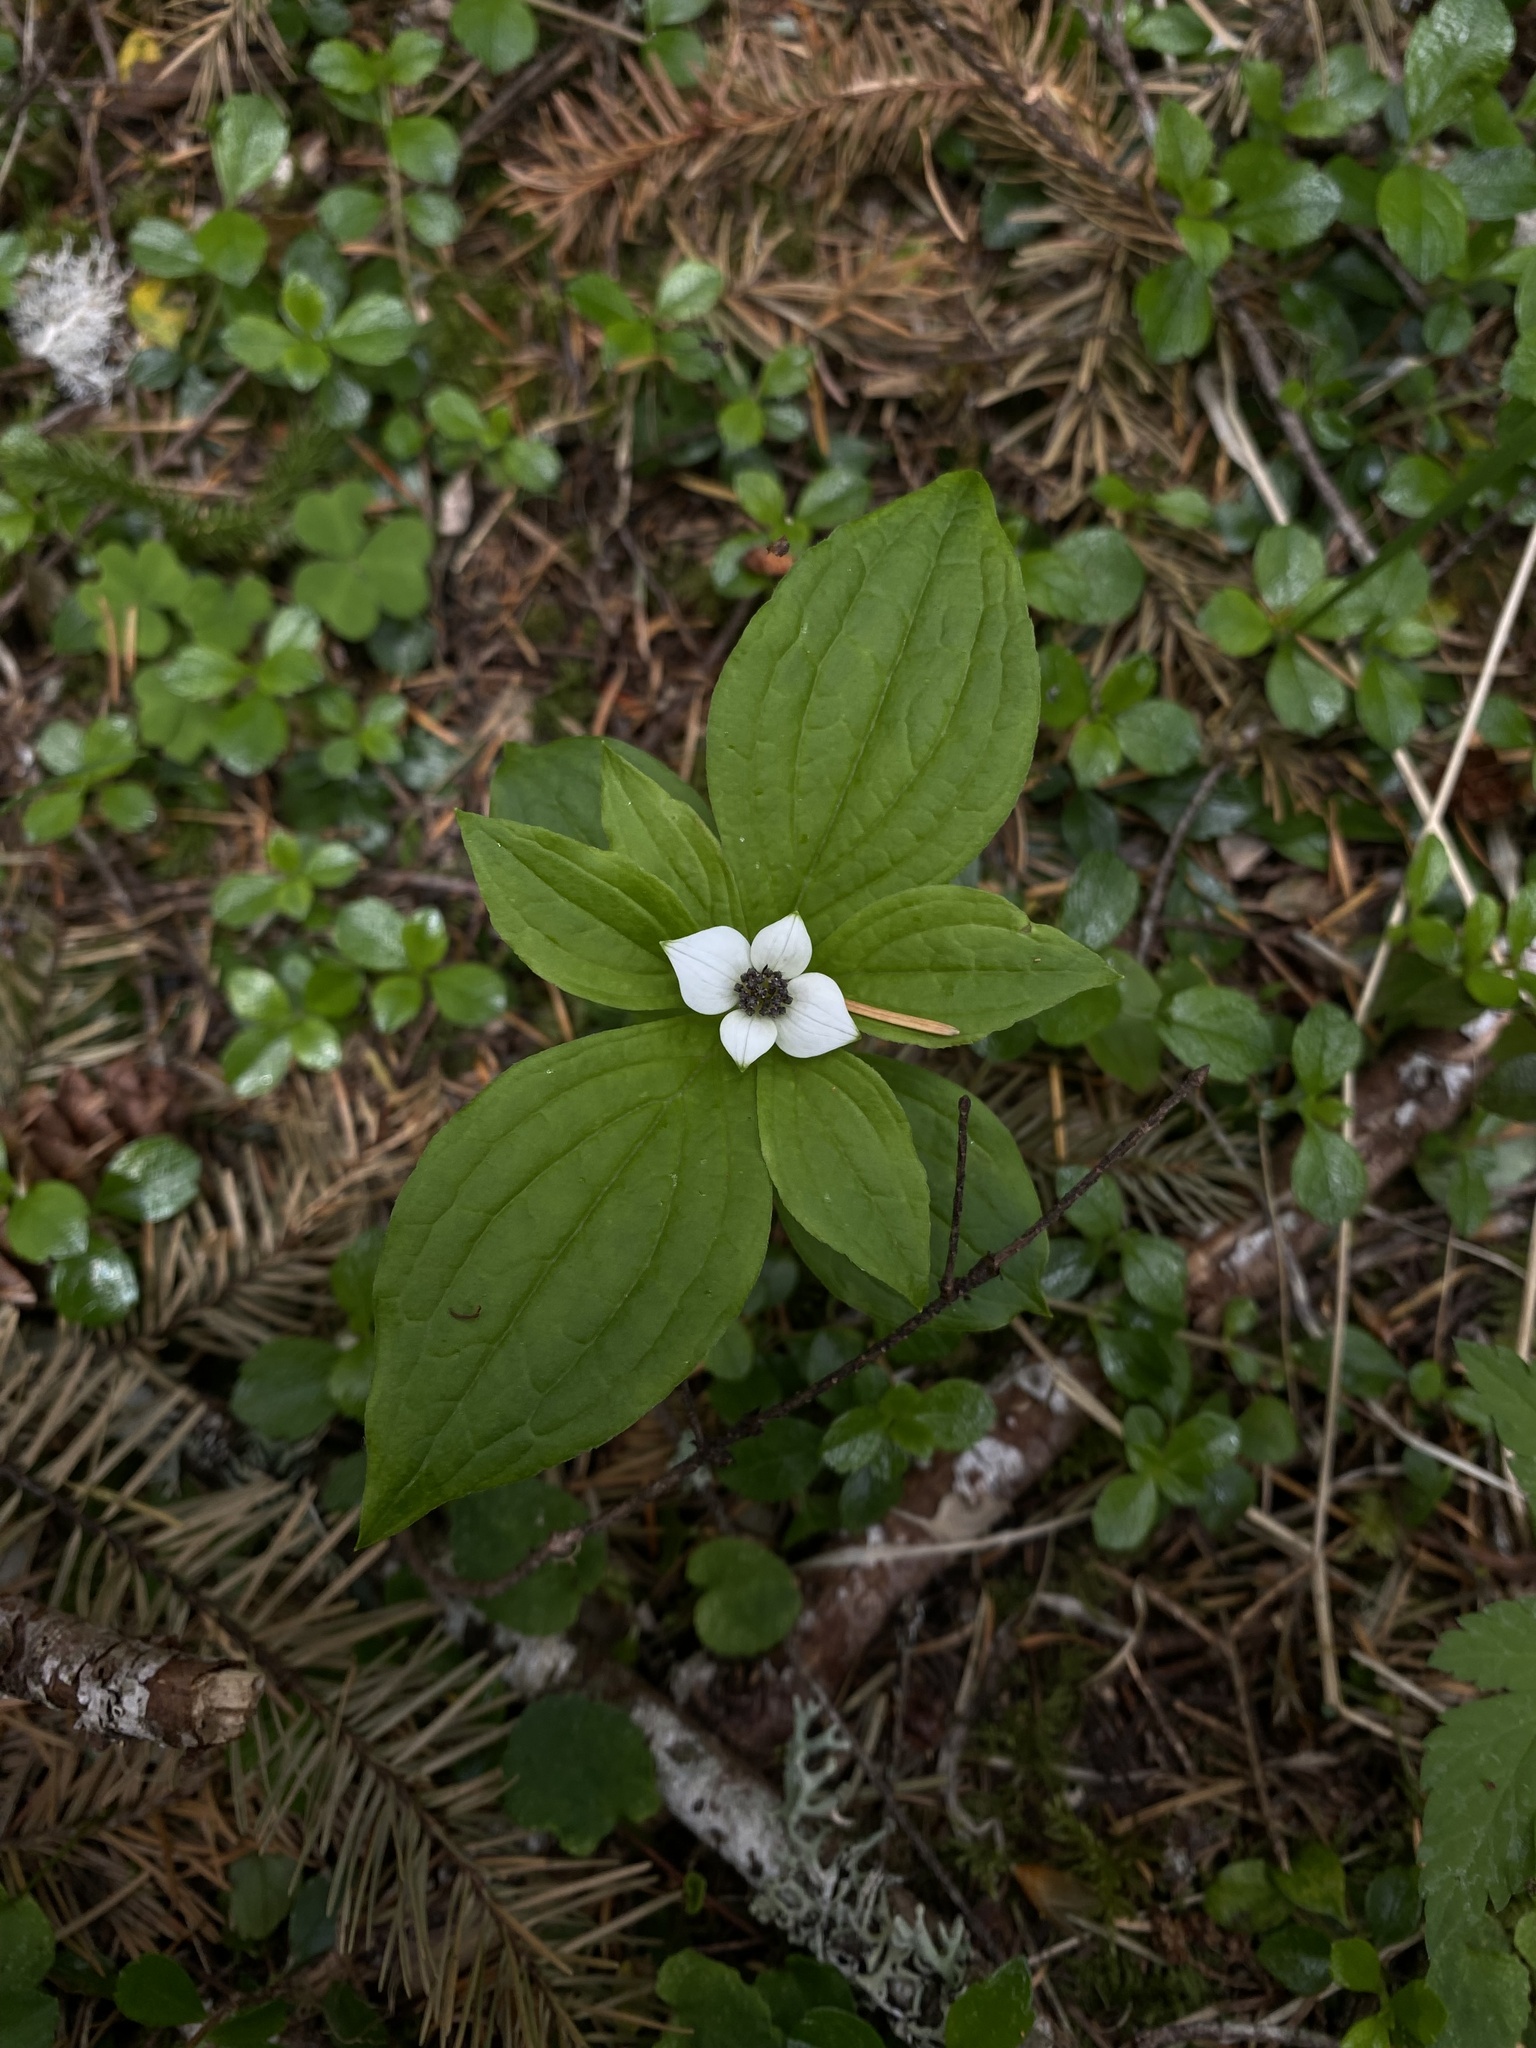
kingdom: Plantae
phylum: Tracheophyta
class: Magnoliopsida
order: Cornales
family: Cornaceae
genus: Cornus
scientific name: Cornus unalaschkensis
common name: Alaska bunchberry
